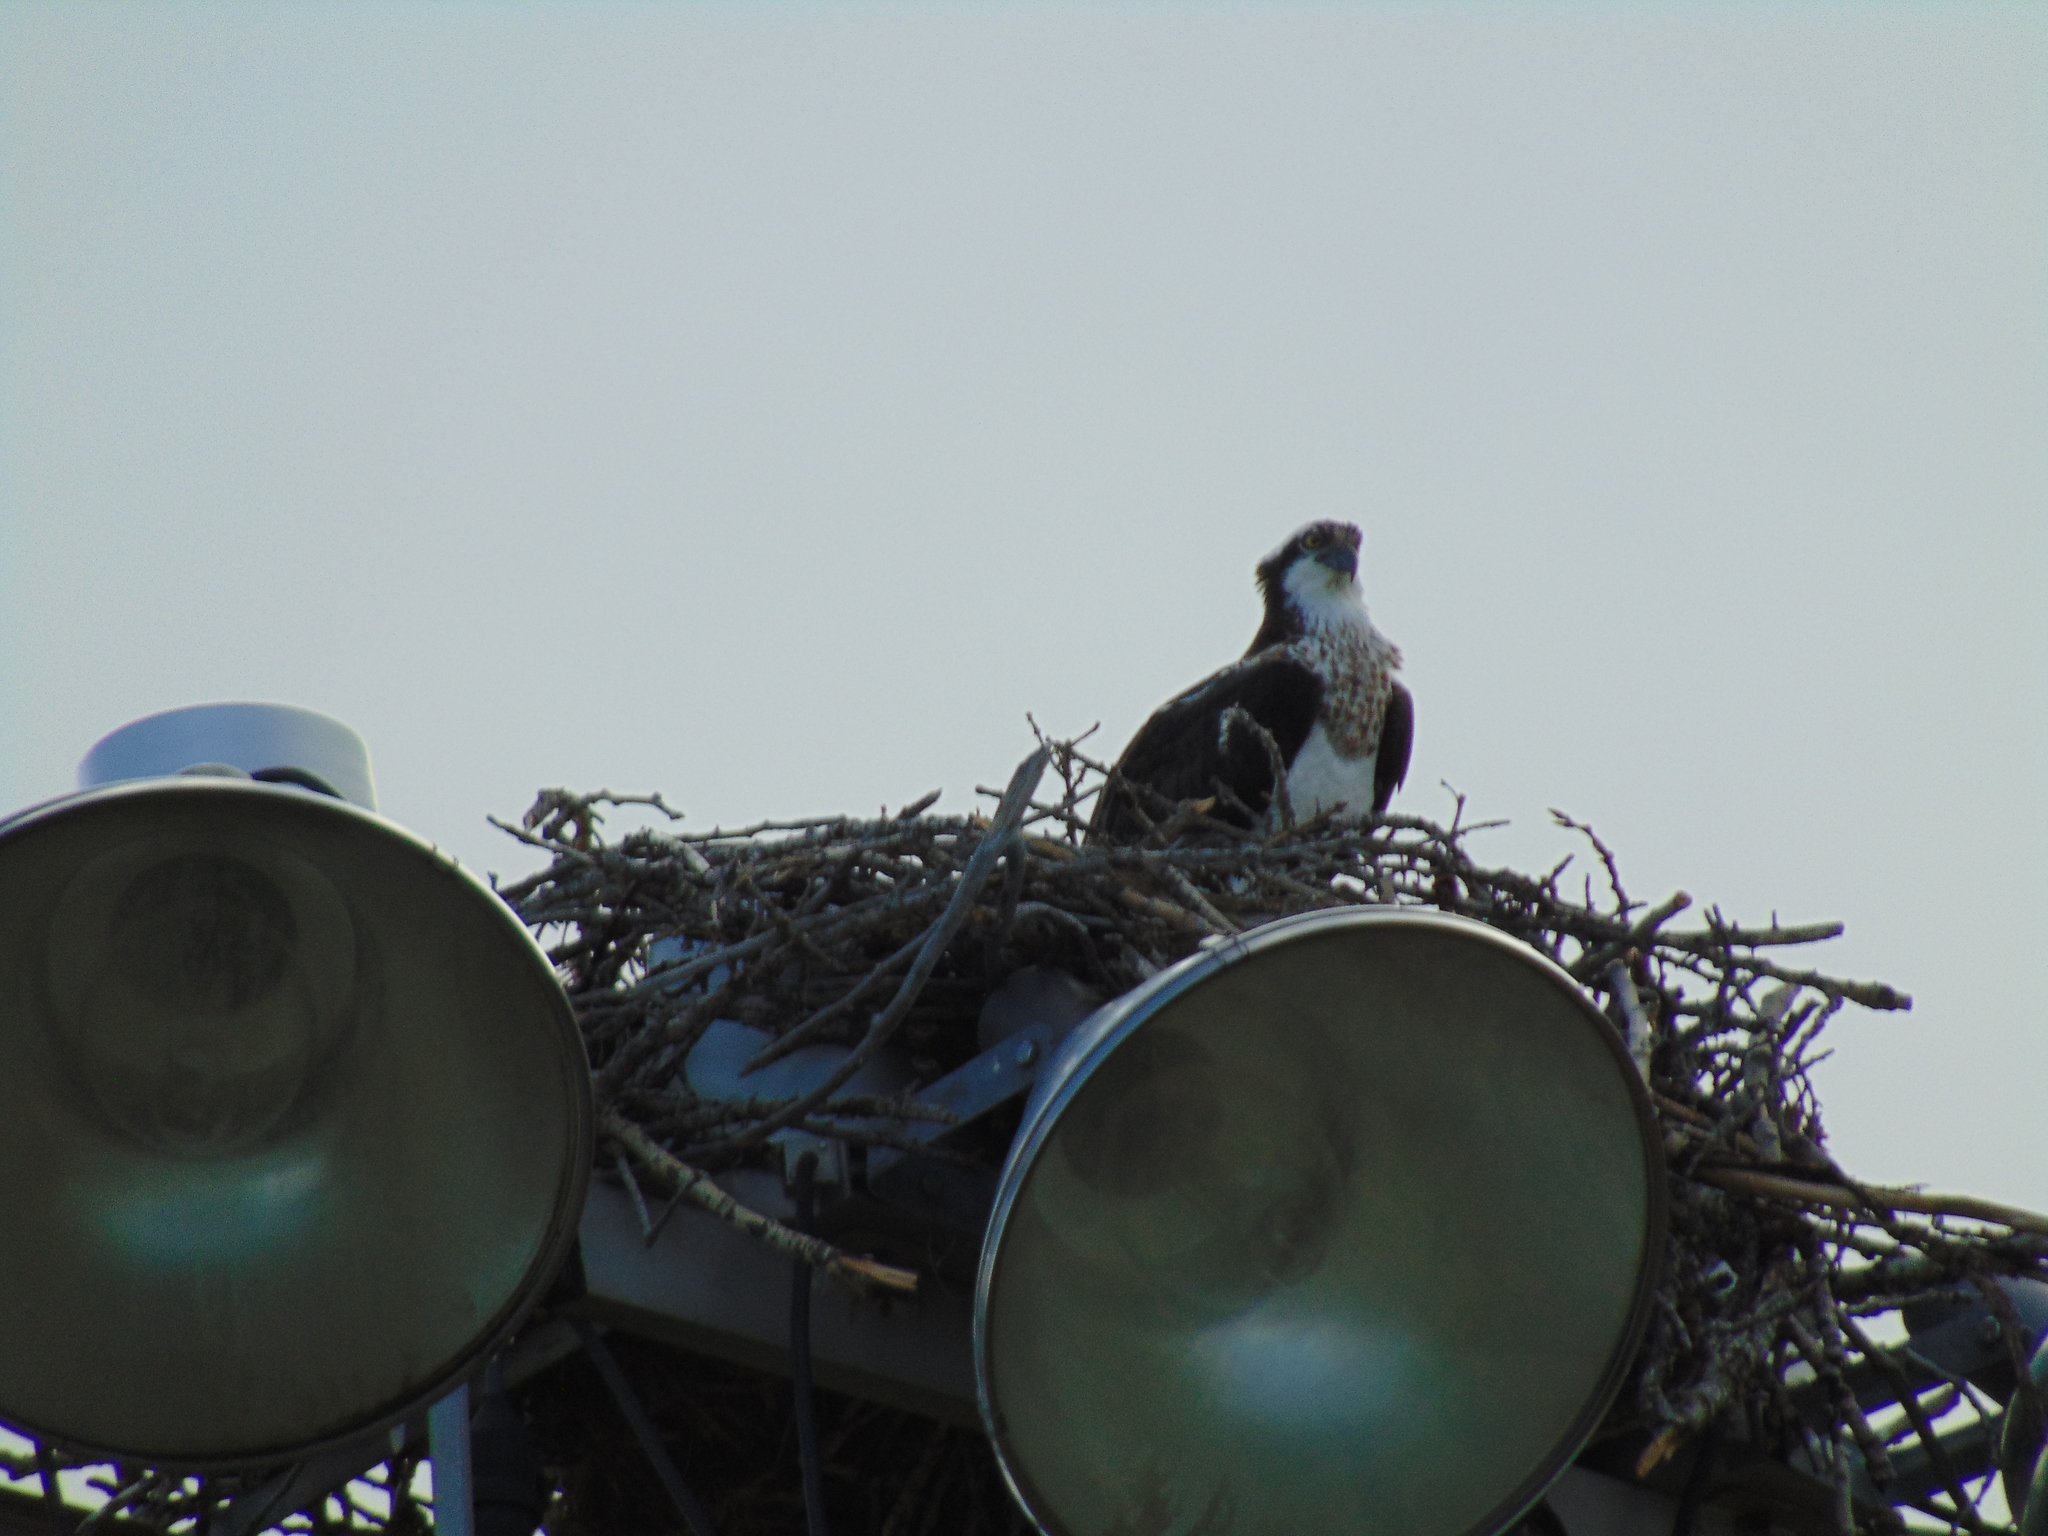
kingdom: Animalia
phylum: Chordata
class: Aves
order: Accipitriformes
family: Pandionidae
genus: Pandion
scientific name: Pandion haliaetus
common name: Osprey
